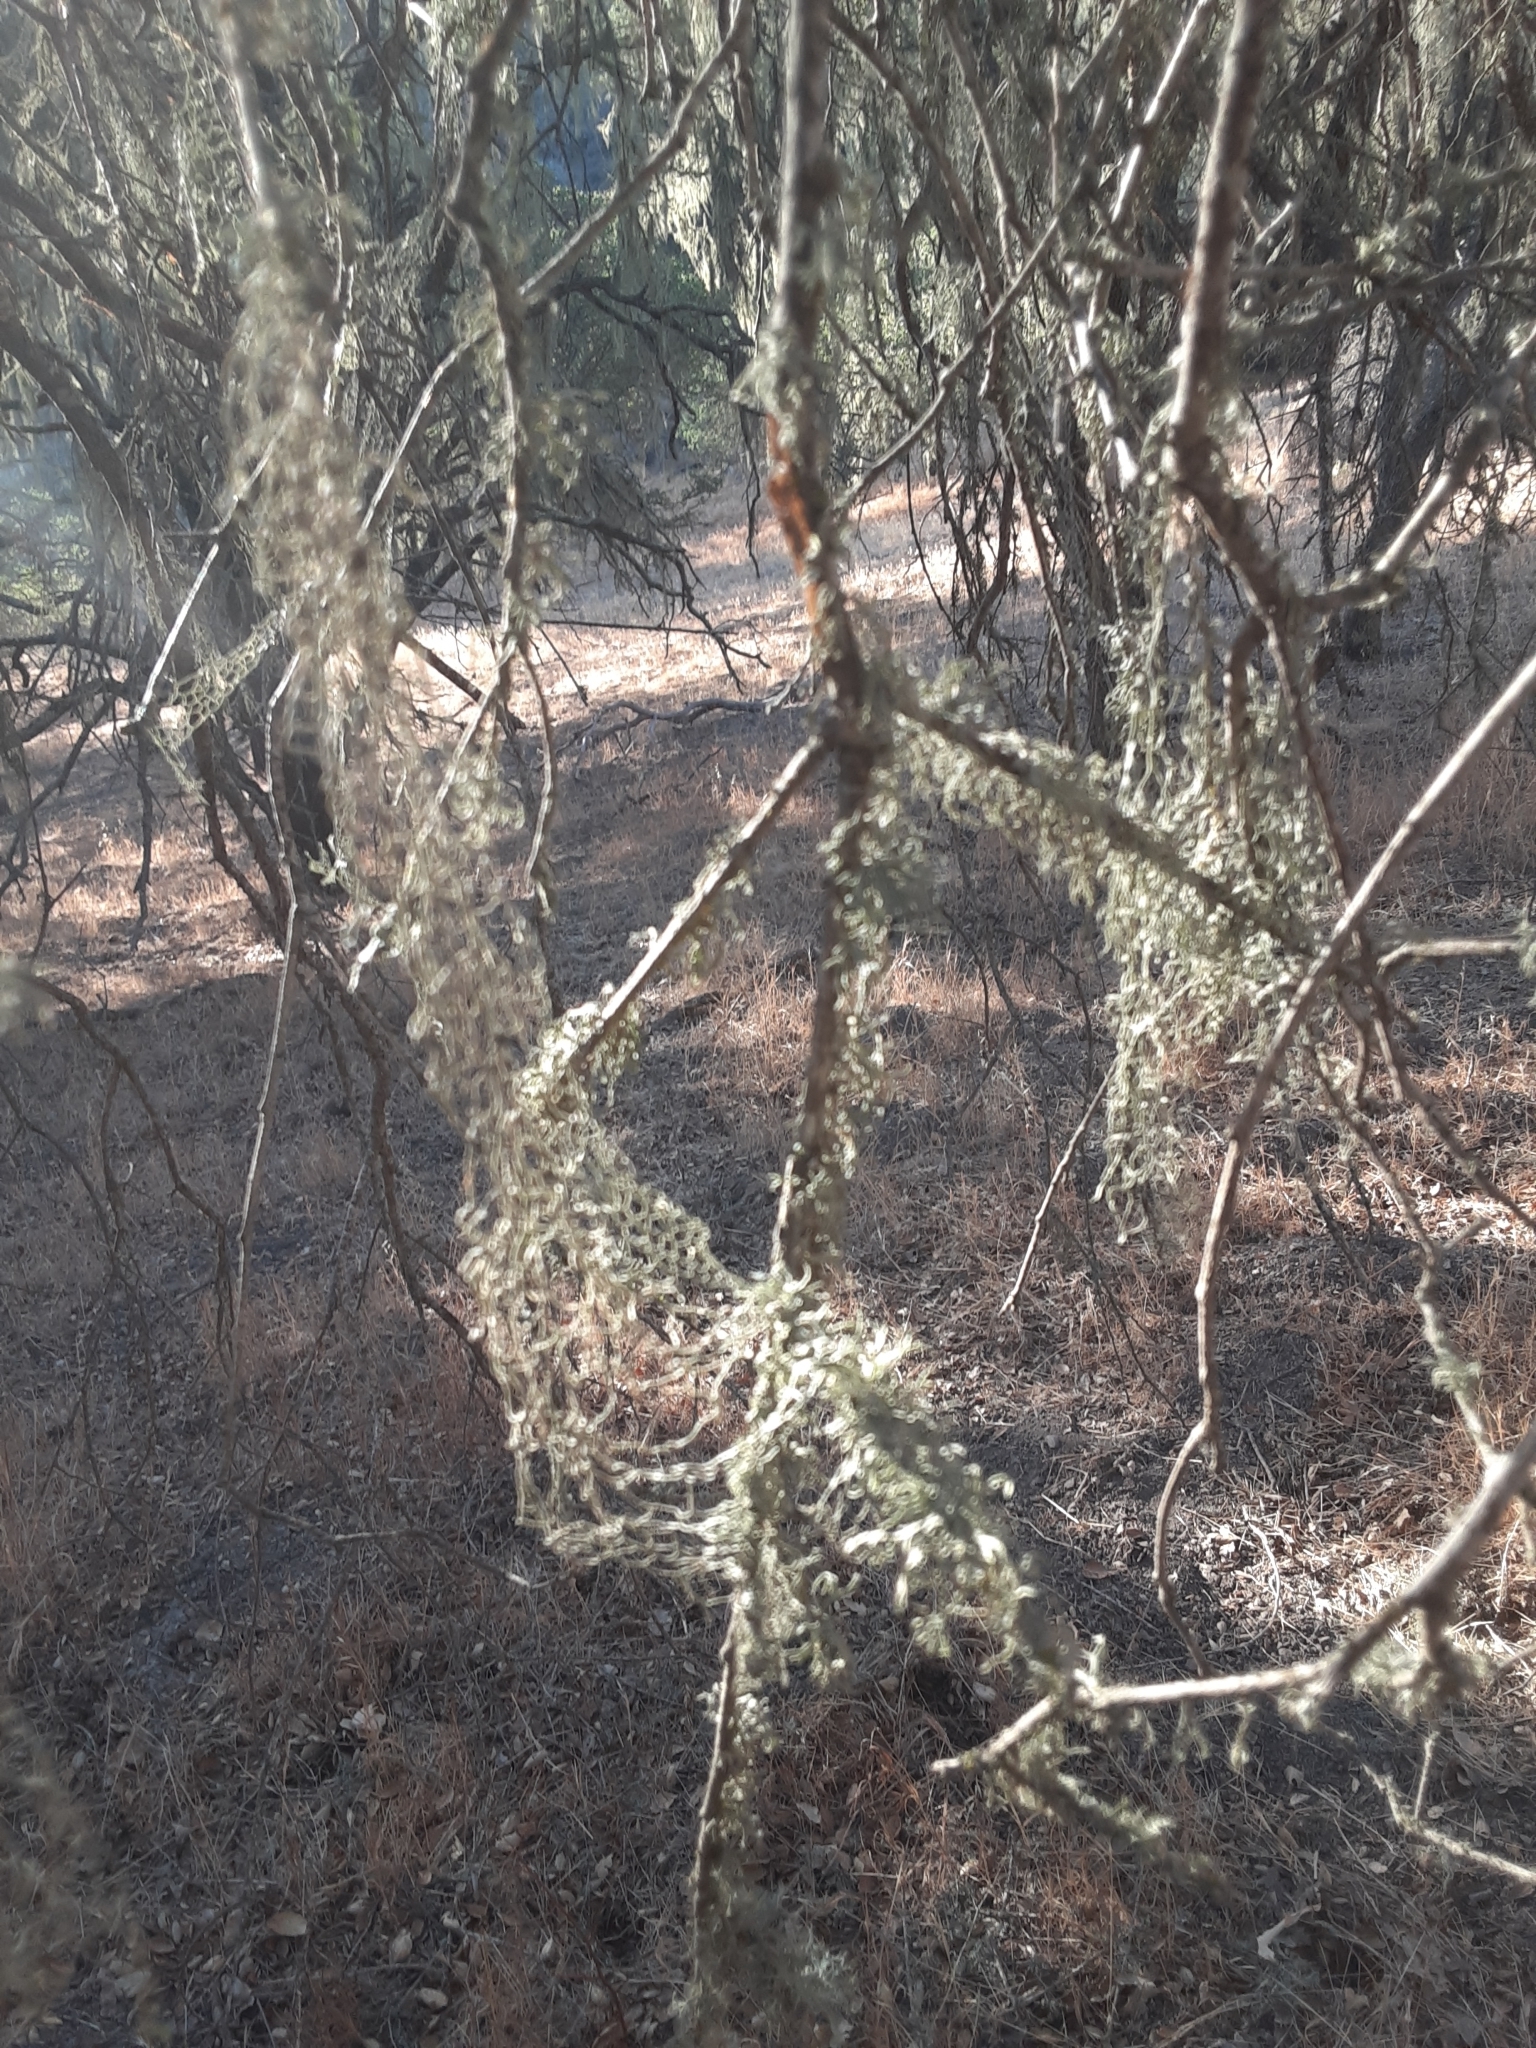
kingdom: Fungi
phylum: Ascomycota
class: Lecanoromycetes
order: Lecanorales
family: Ramalinaceae
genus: Ramalina
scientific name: Ramalina menziesii
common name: Lace lichen
